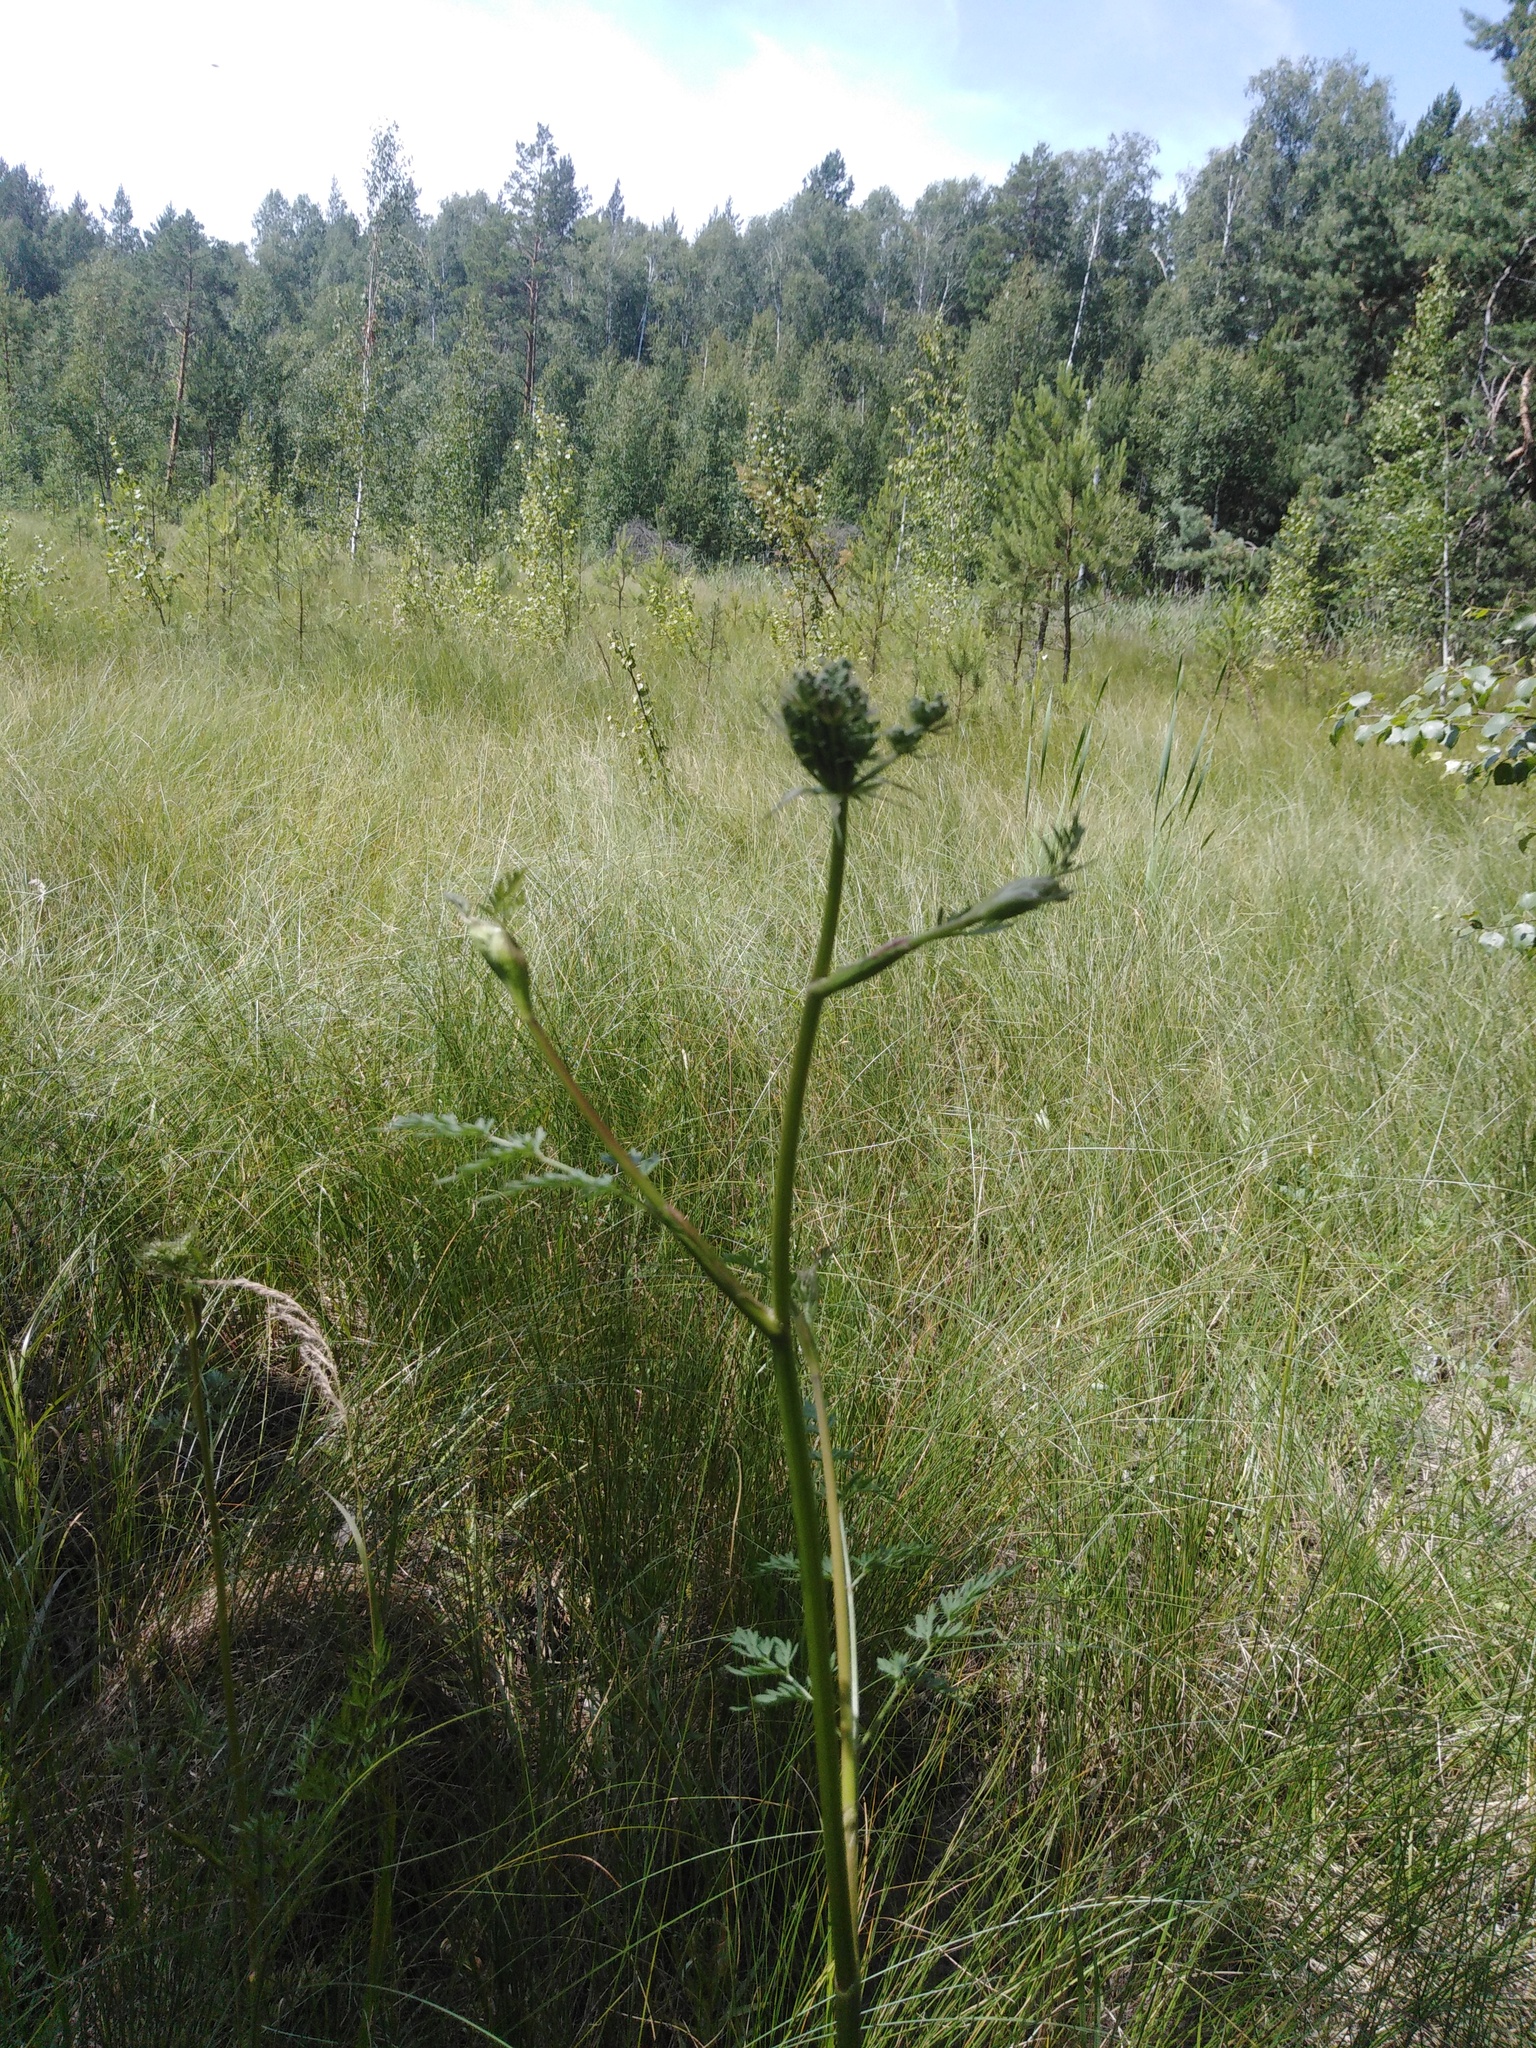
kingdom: Plantae
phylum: Tracheophyta
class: Magnoliopsida
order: Apiales
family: Apiaceae
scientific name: Apiaceae
